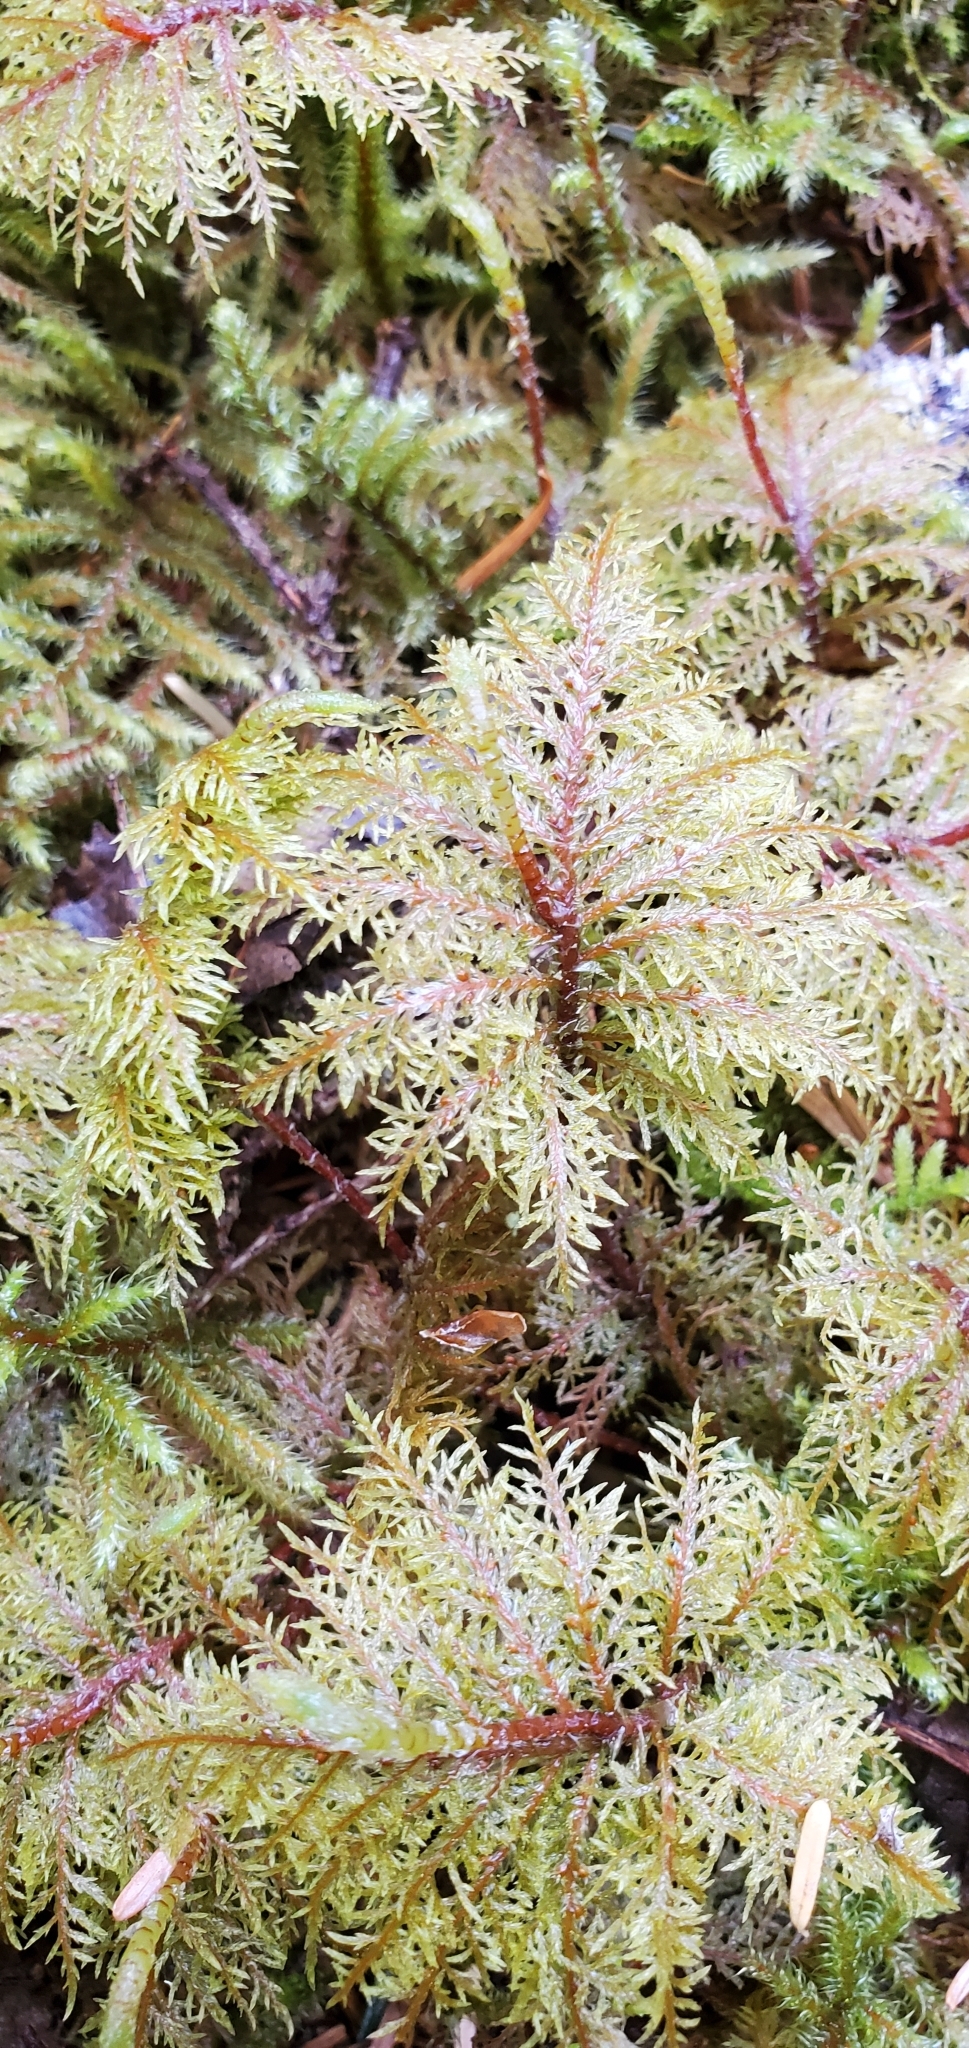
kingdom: Plantae
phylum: Bryophyta
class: Bryopsida
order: Hypnales
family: Hylocomiaceae
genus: Hylocomium
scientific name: Hylocomium splendens
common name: Stairstep moss
